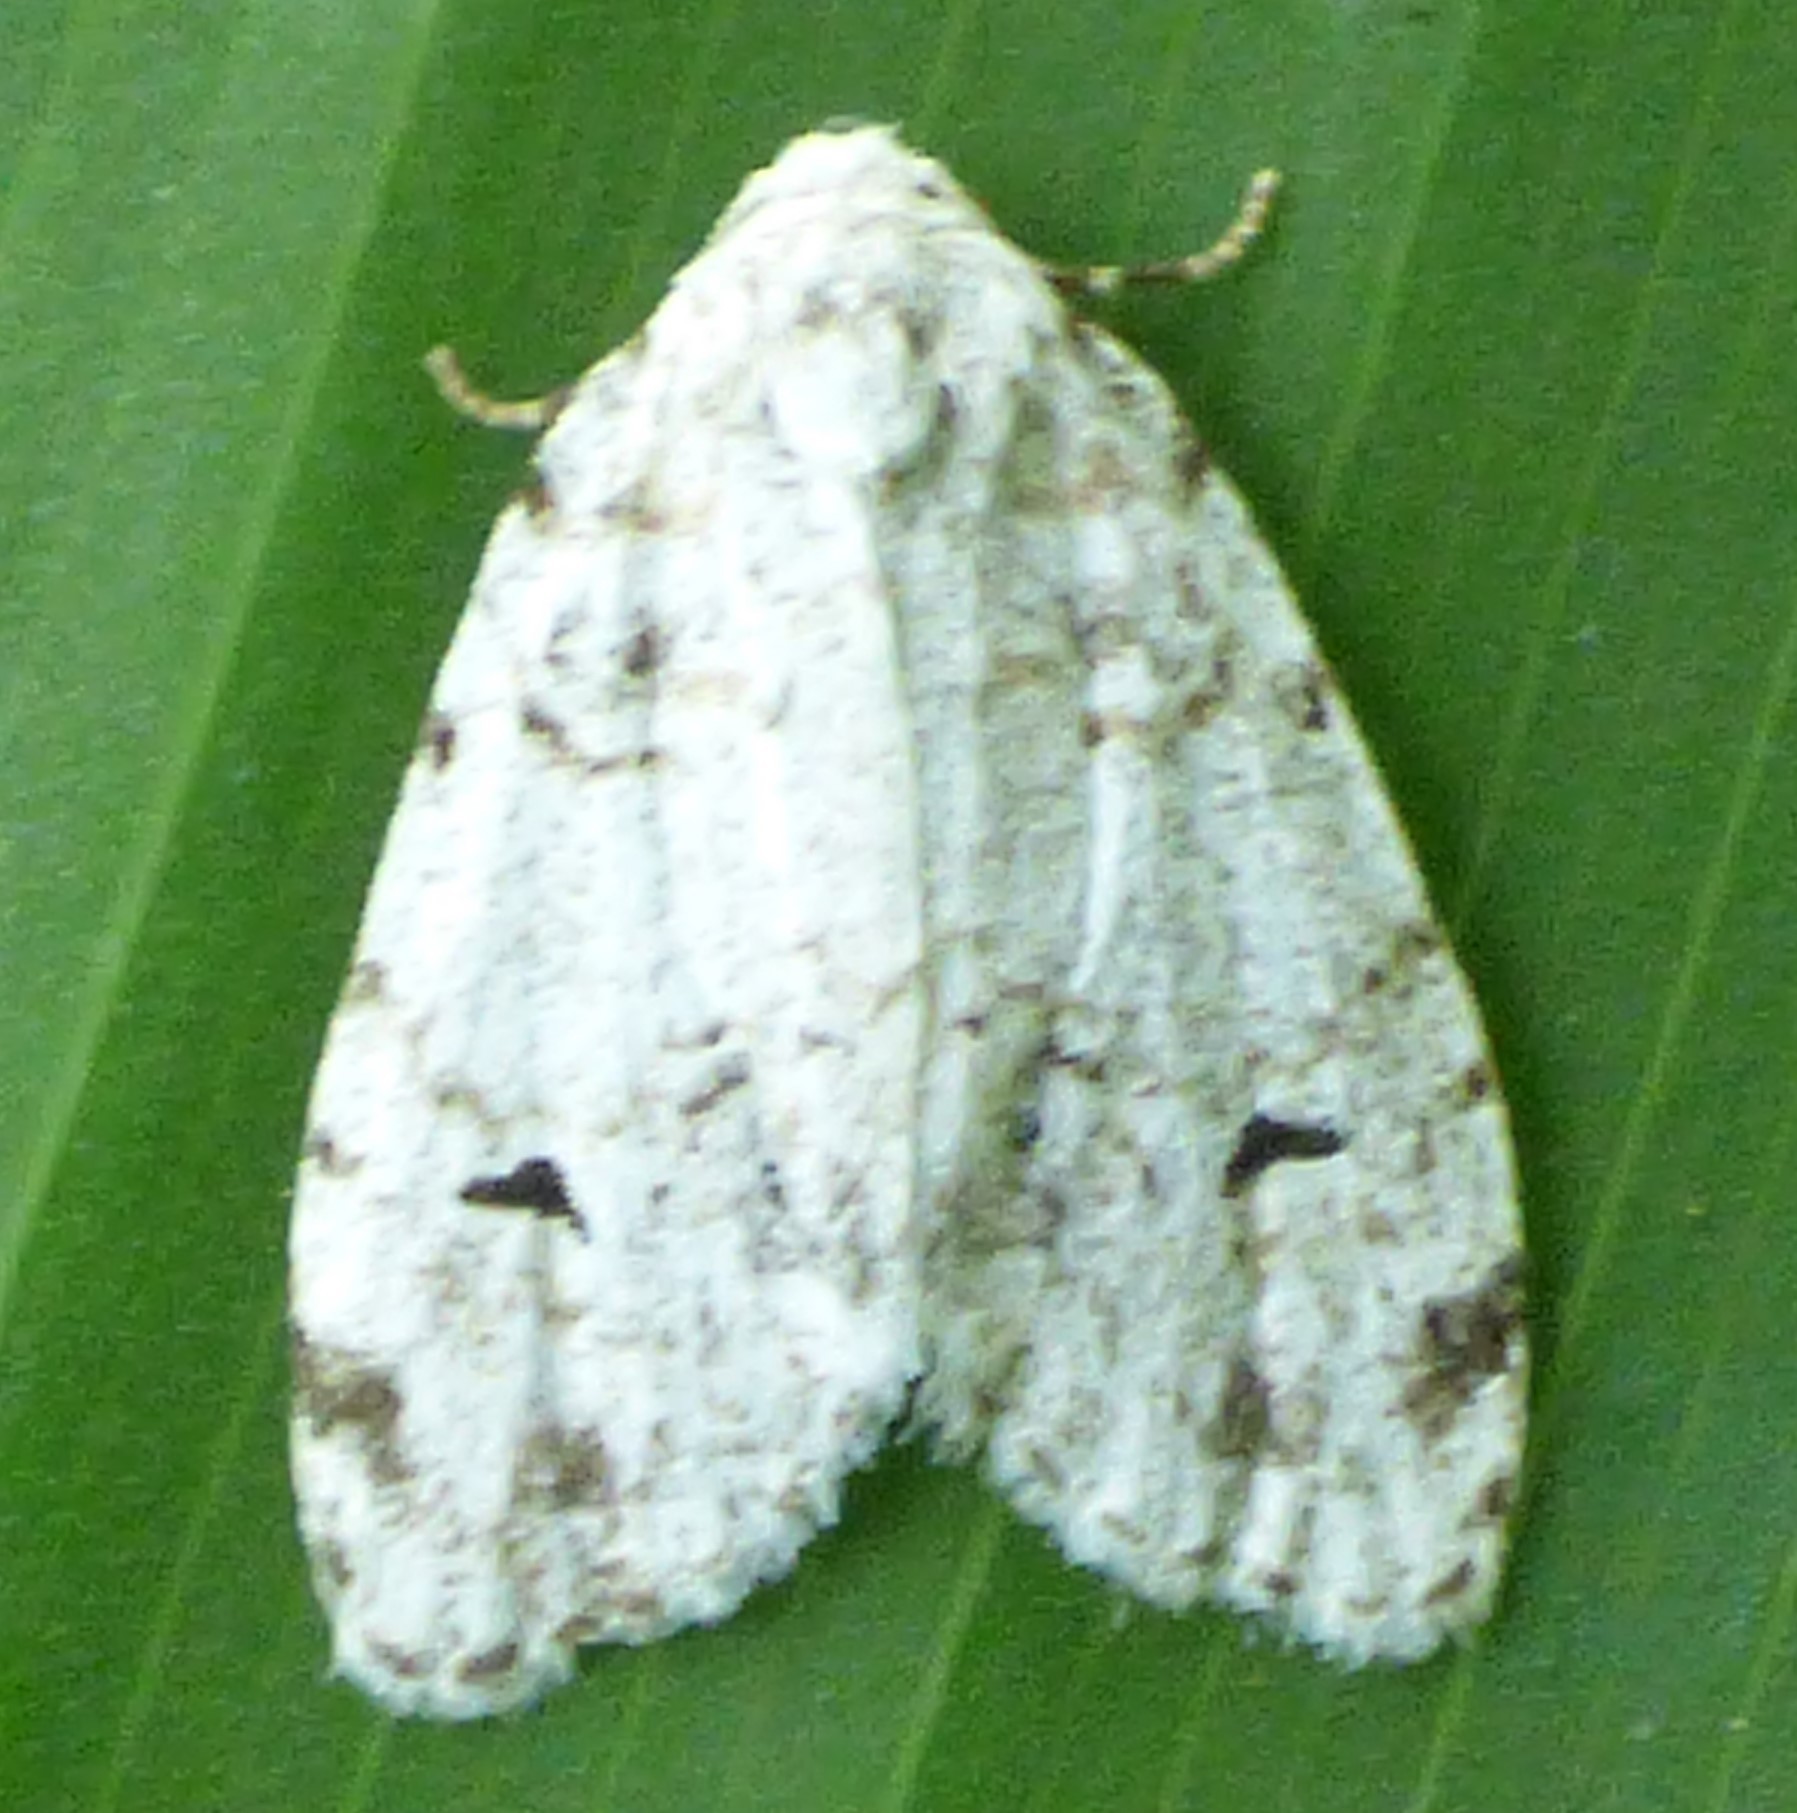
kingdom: Animalia
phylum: Arthropoda
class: Insecta
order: Lepidoptera
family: Erebidae
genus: Clemensia
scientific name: Clemensia albata
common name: Little white lichen moth
